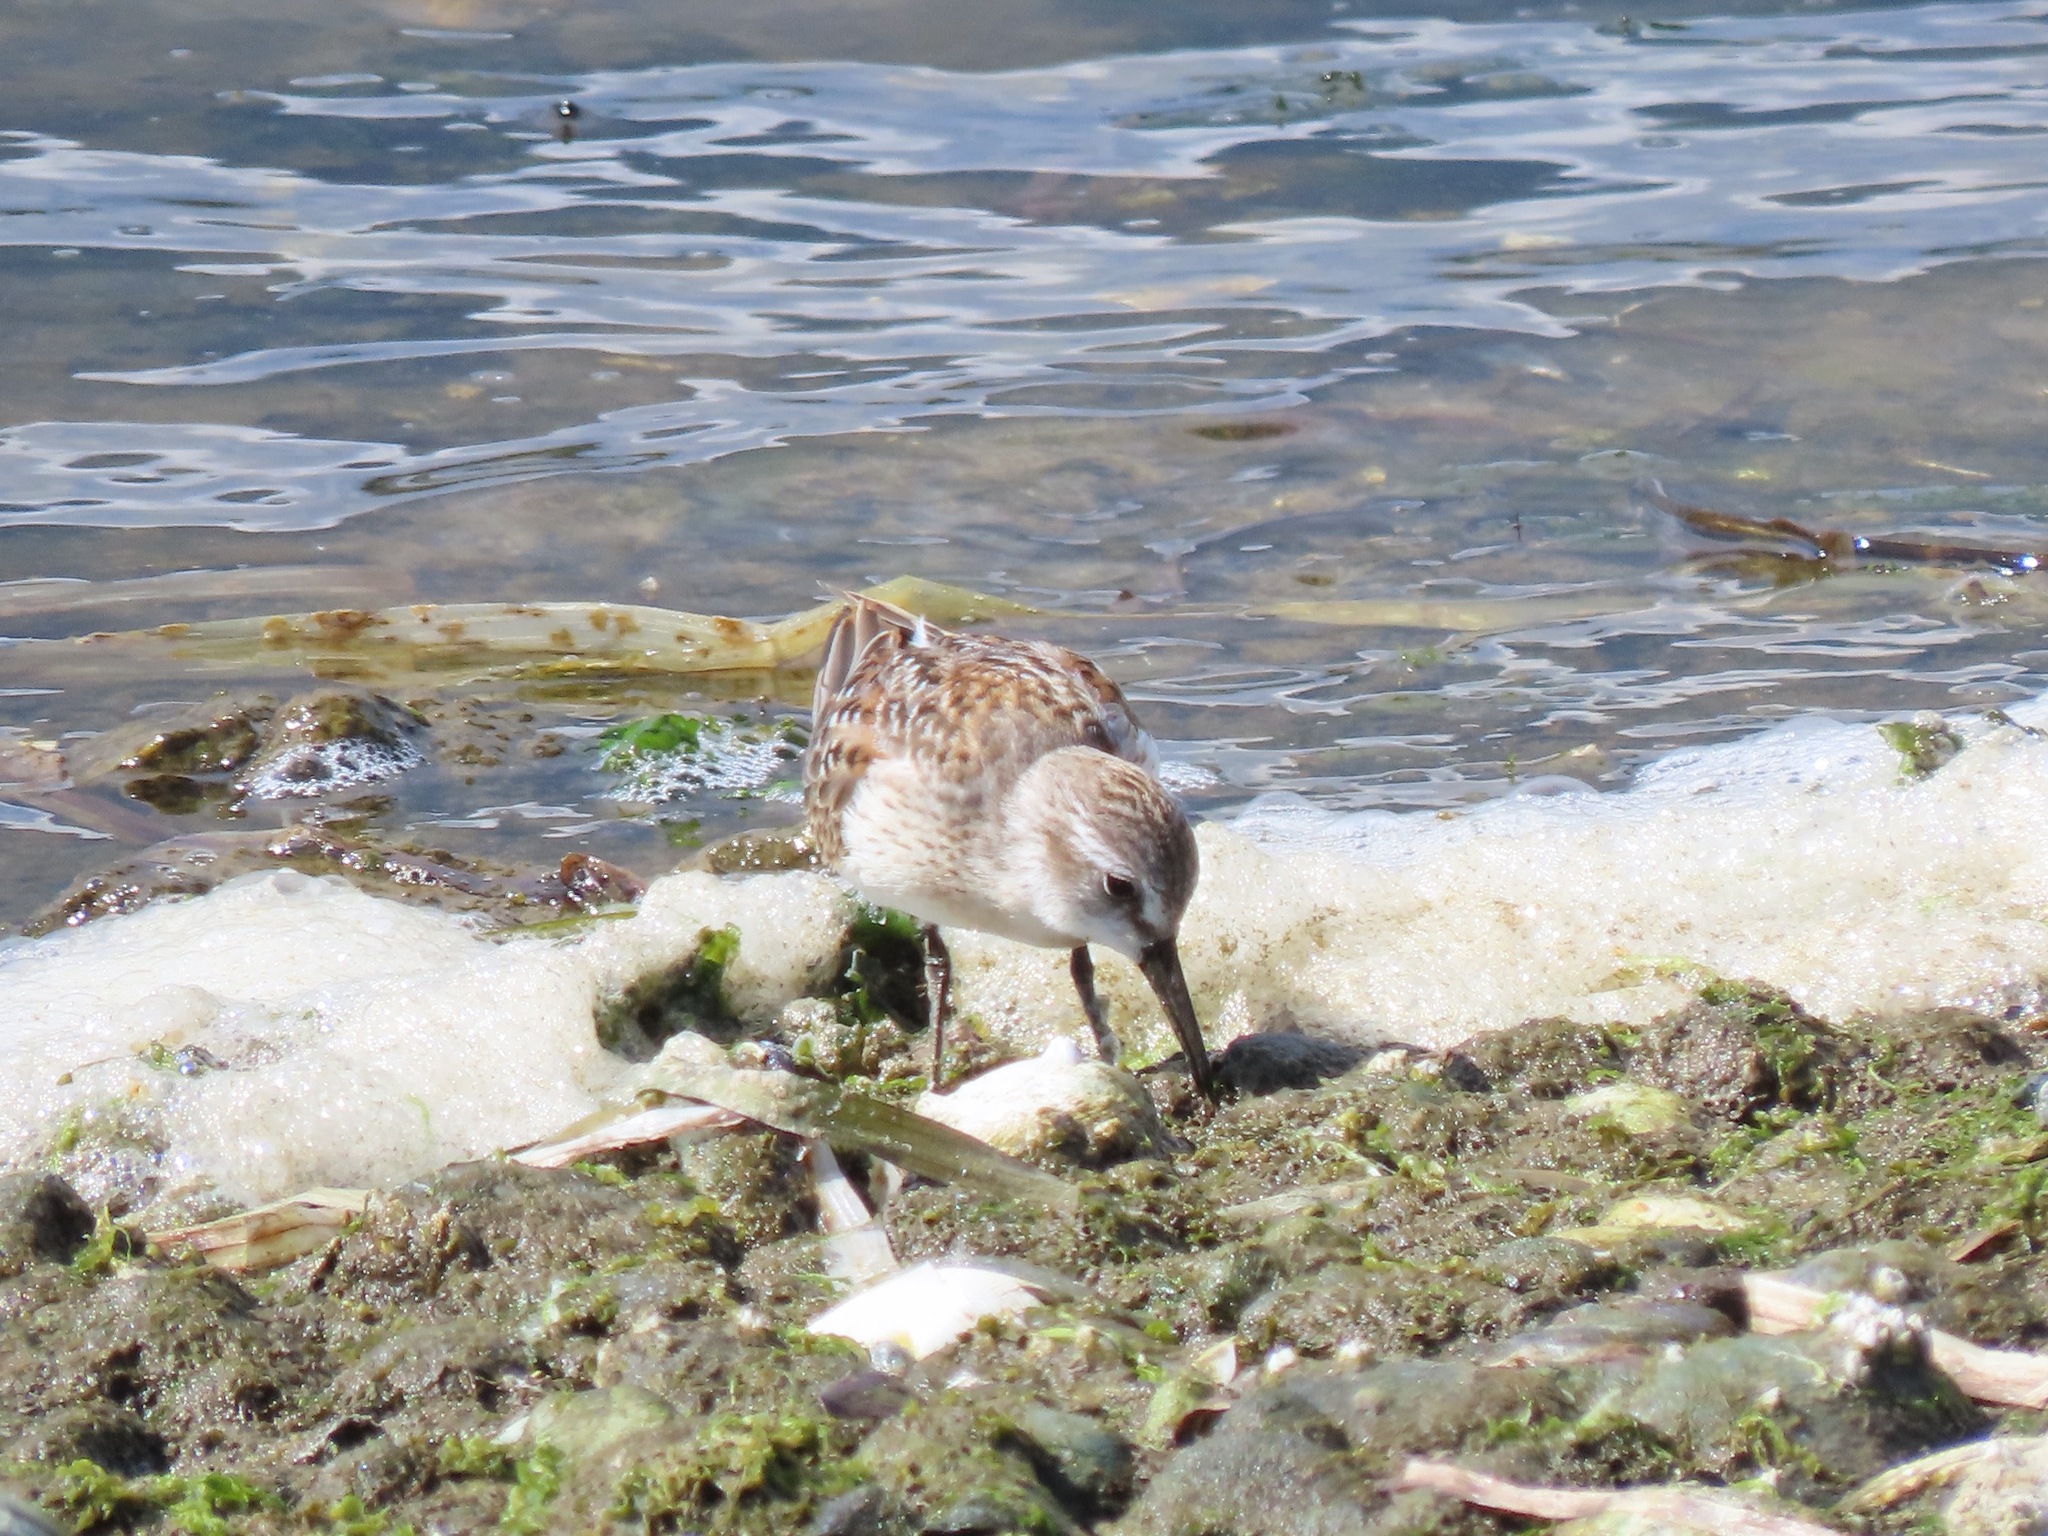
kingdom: Animalia
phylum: Chordata
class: Aves
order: Charadriiformes
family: Scolopacidae
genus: Calidris
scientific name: Calidris mauri
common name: Western sandpiper
